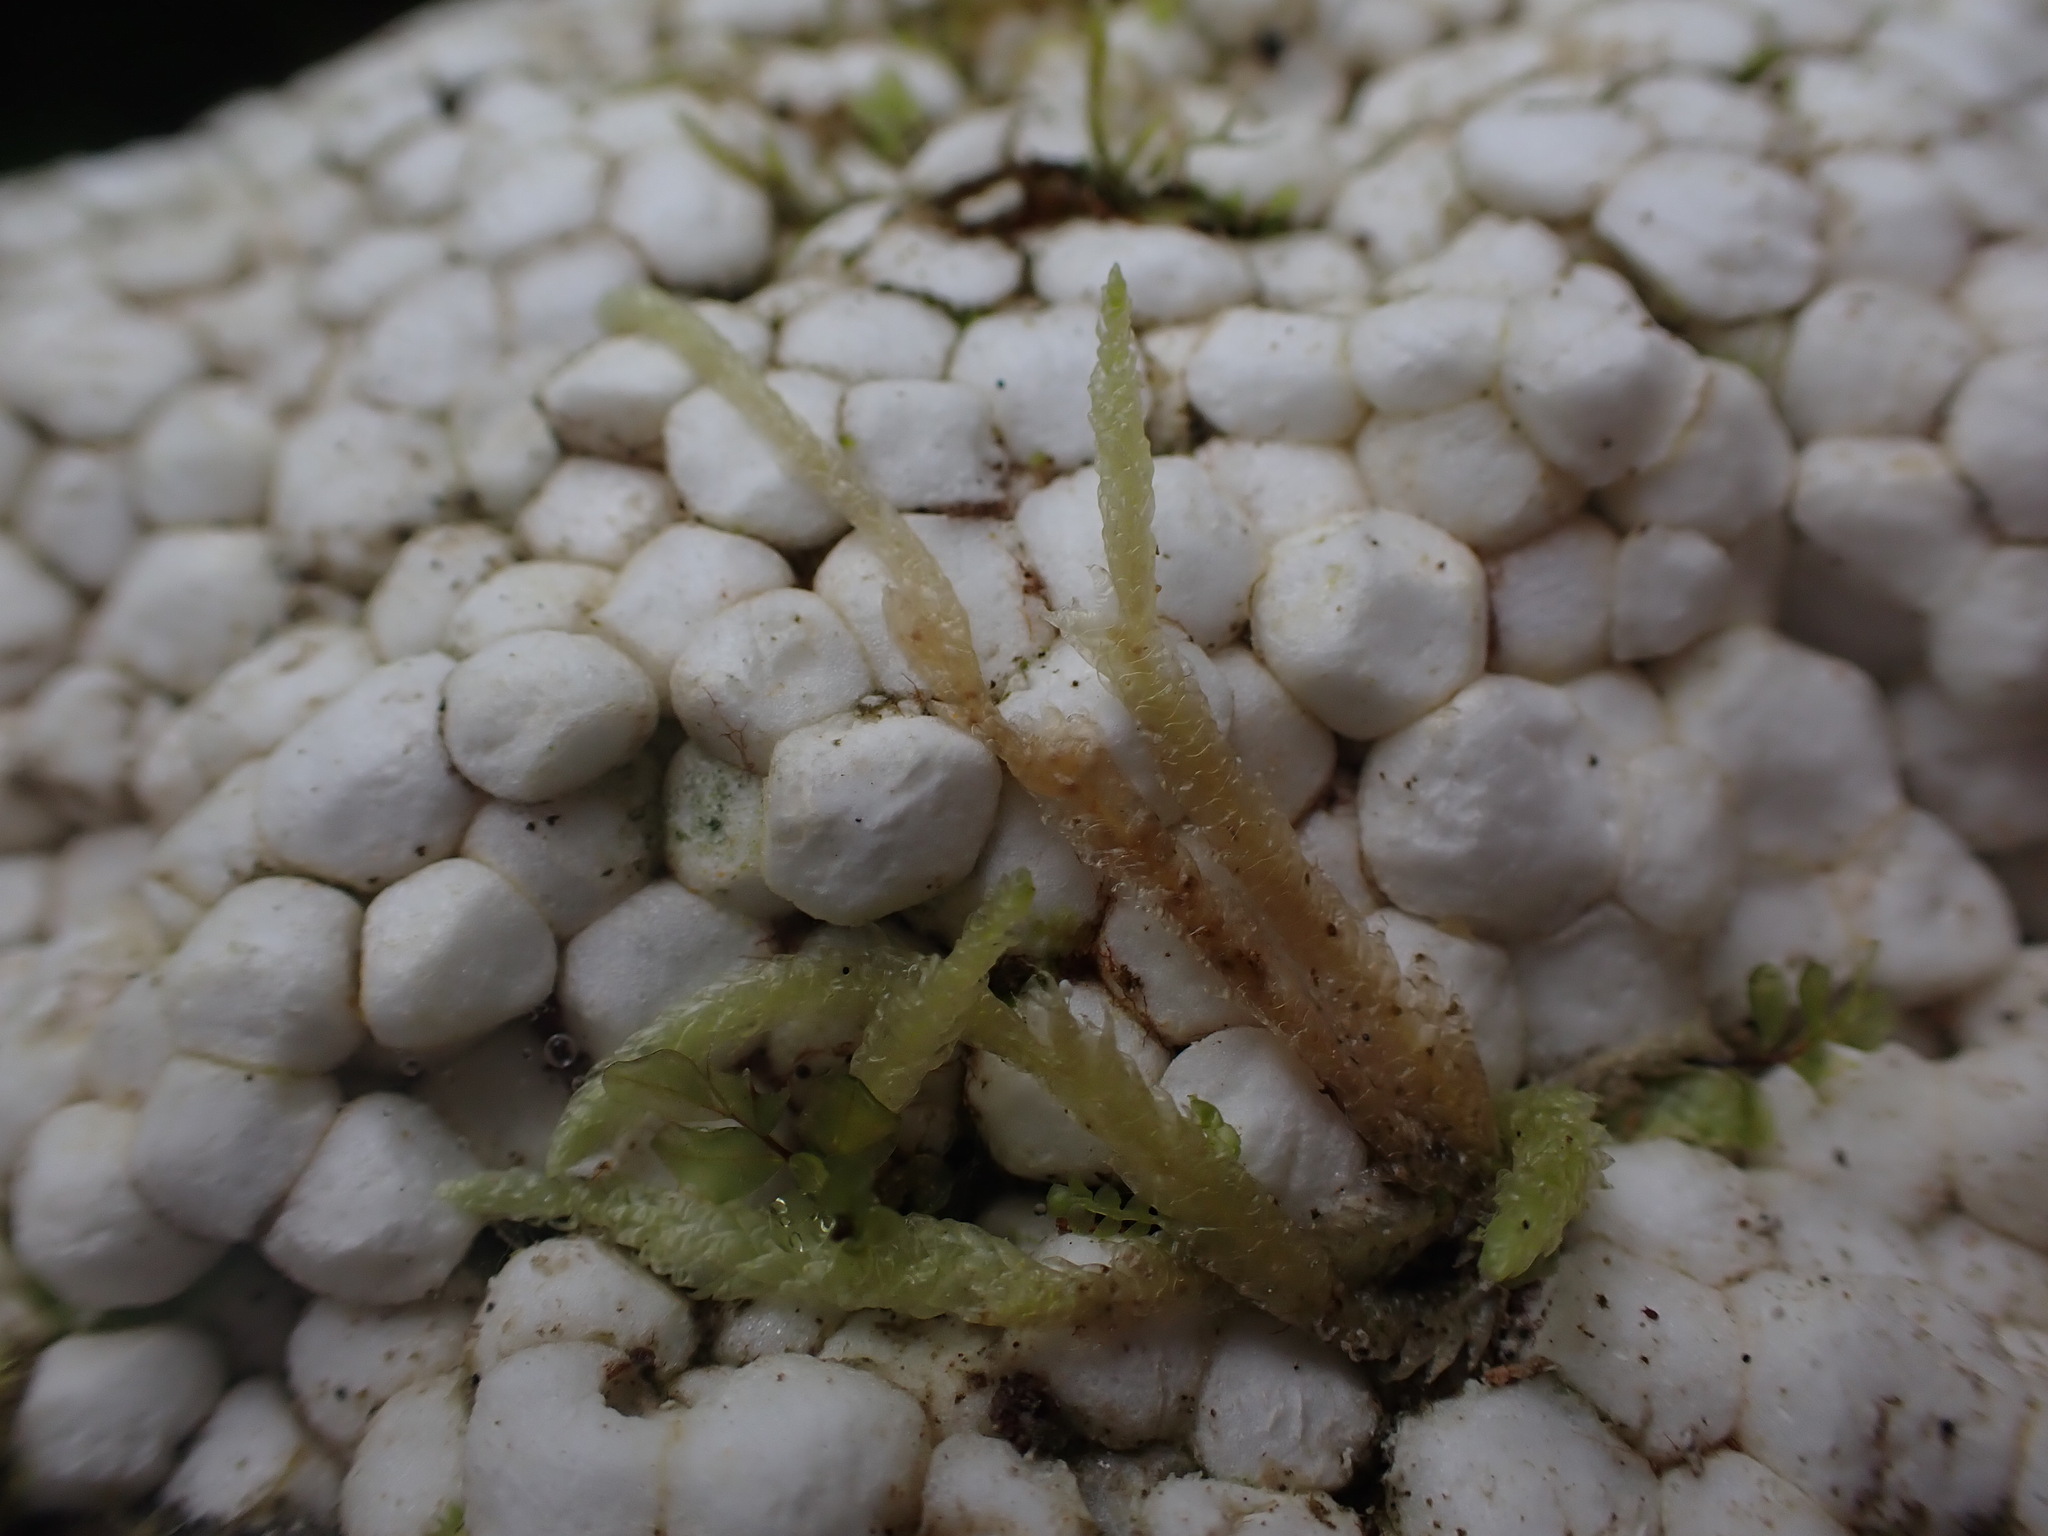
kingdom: Plantae
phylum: Bryophyta
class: Bryopsida
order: Hypnales
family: Plagiotheciaceae
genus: Plagiothecium
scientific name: Plagiothecium undulatum
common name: Waved silk-moss
